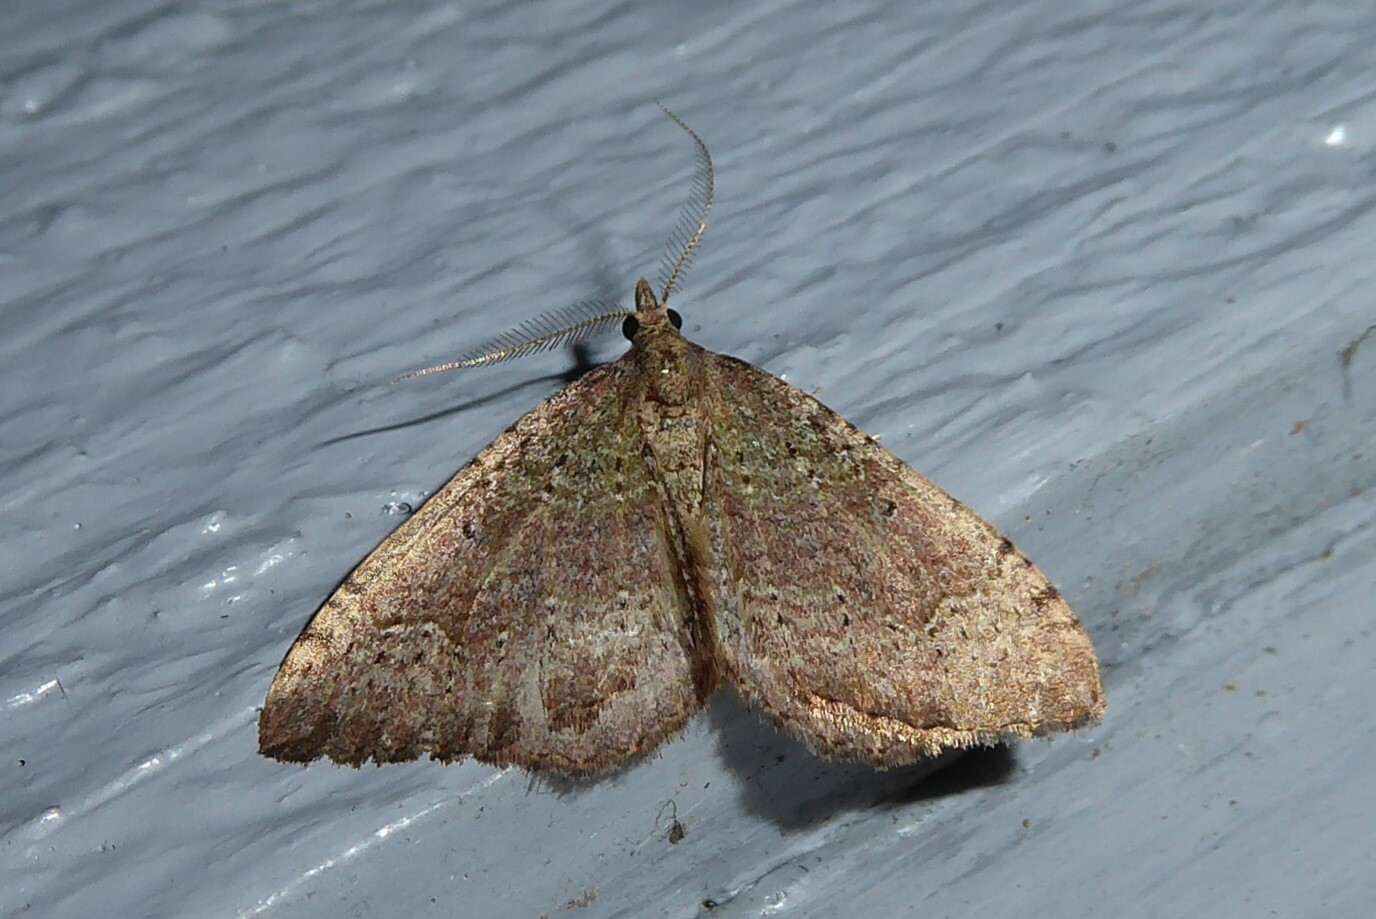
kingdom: Animalia
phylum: Arthropoda
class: Insecta
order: Lepidoptera
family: Geometridae
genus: Epyaxa
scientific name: Epyaxa rosearia
